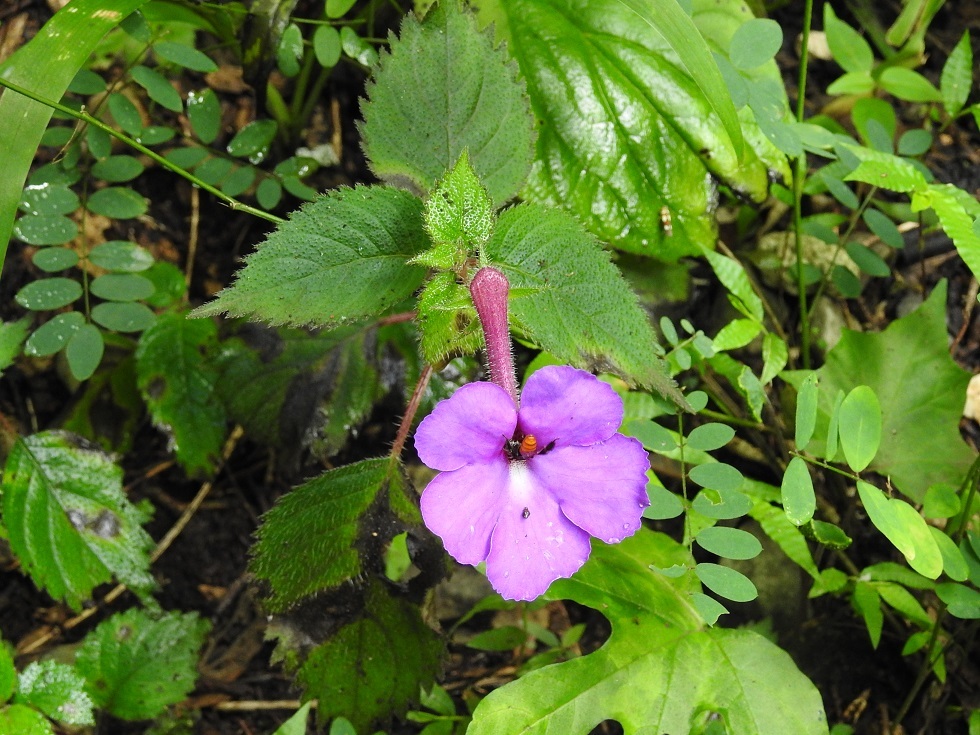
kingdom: Plantae
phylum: Tracheophyta
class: Magnoliopsida
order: Lamiales
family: Gesneriaceae
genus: Achimenes
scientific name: Achimenes grandiflora
